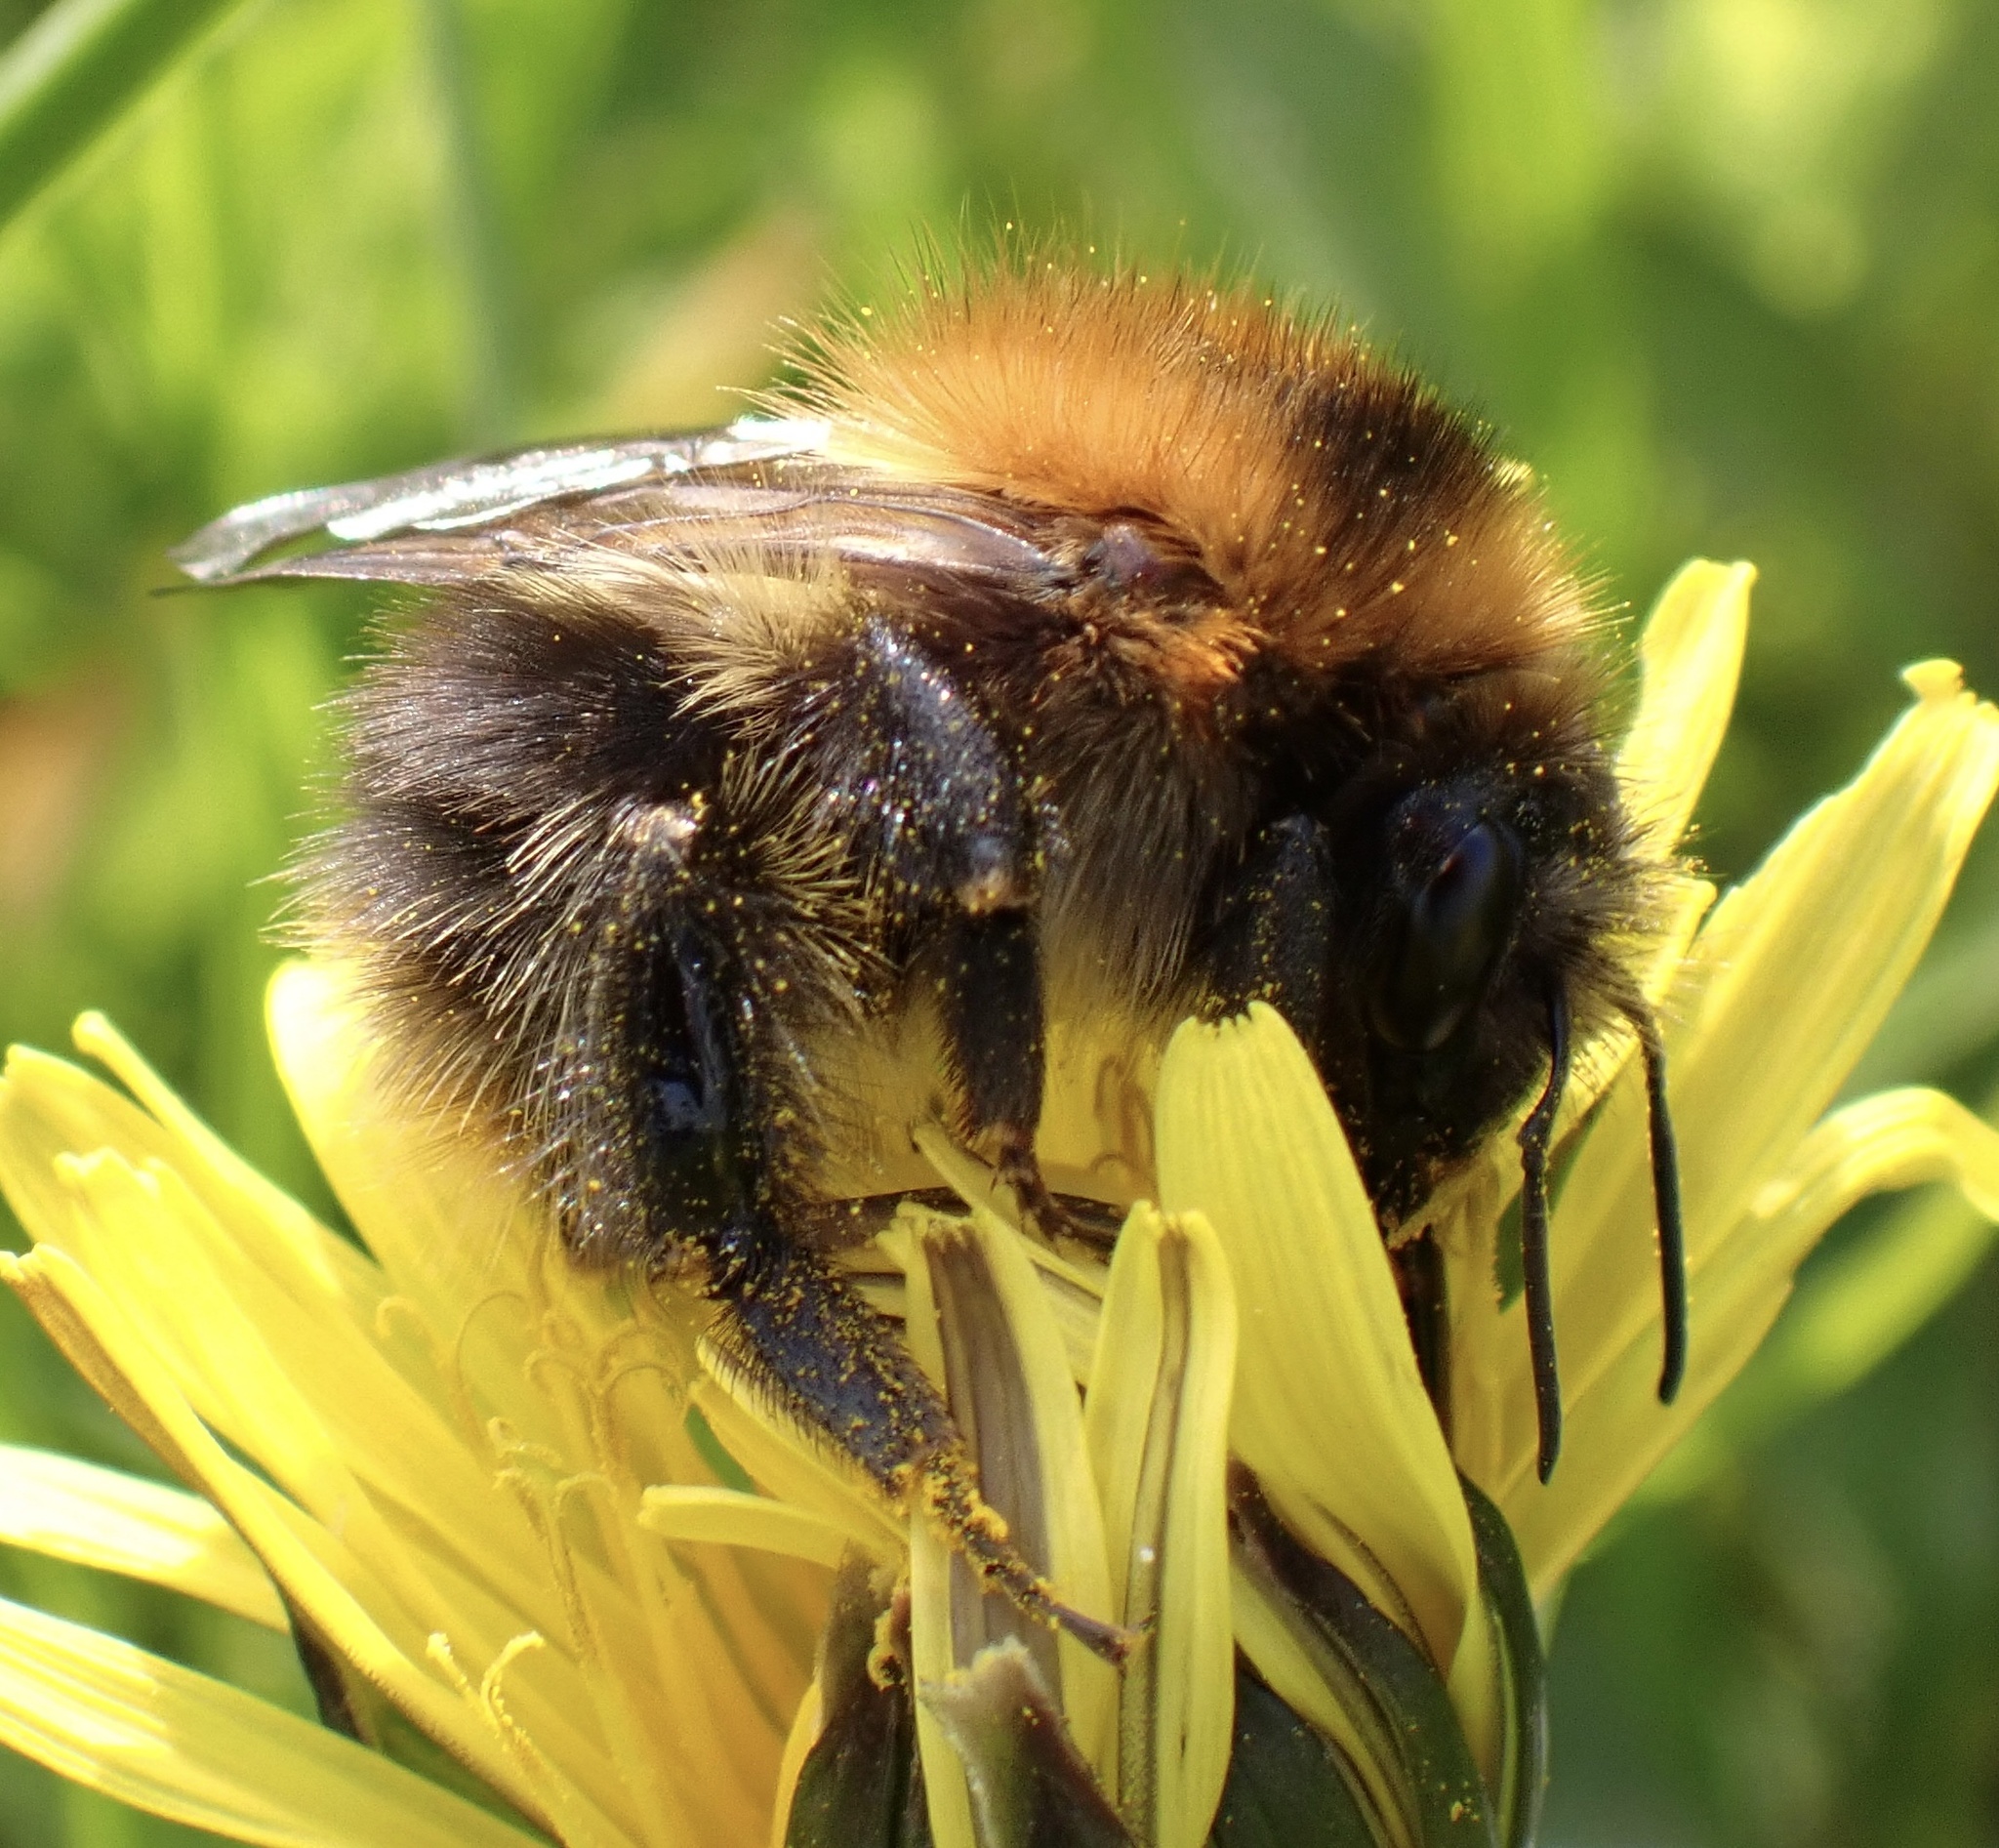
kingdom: Animalia
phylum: Arthropoda
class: Insecta
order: Hymenoptera
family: Apidae
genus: Bombus
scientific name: Bombus pascuorum
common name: Common carder bee
